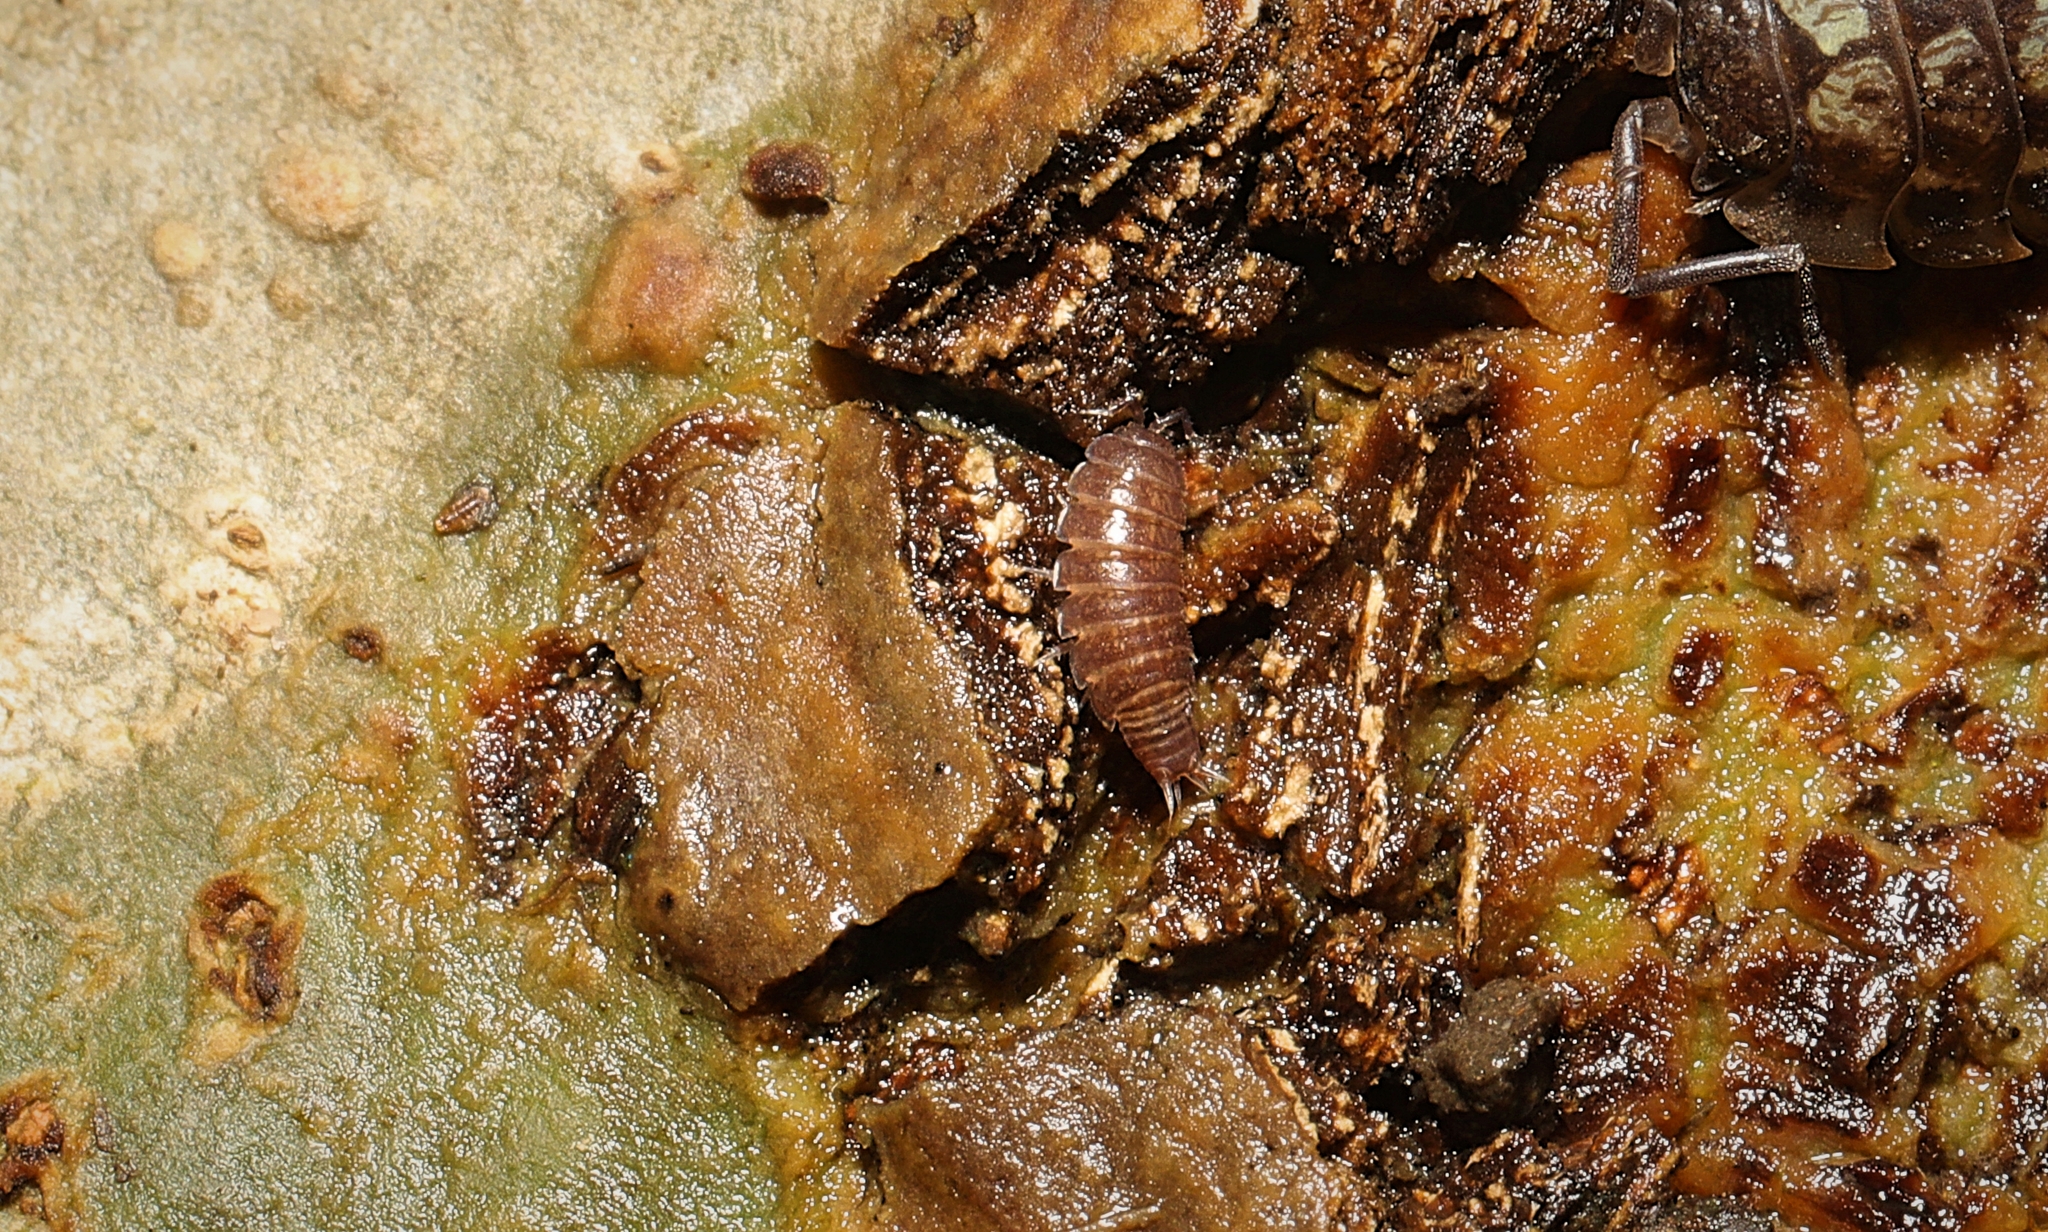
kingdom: Animalia
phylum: Arthropoda
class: Malacostraca
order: Isopoda
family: Trichoniscidae
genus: Trichoniscus
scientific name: Trichoniscus
